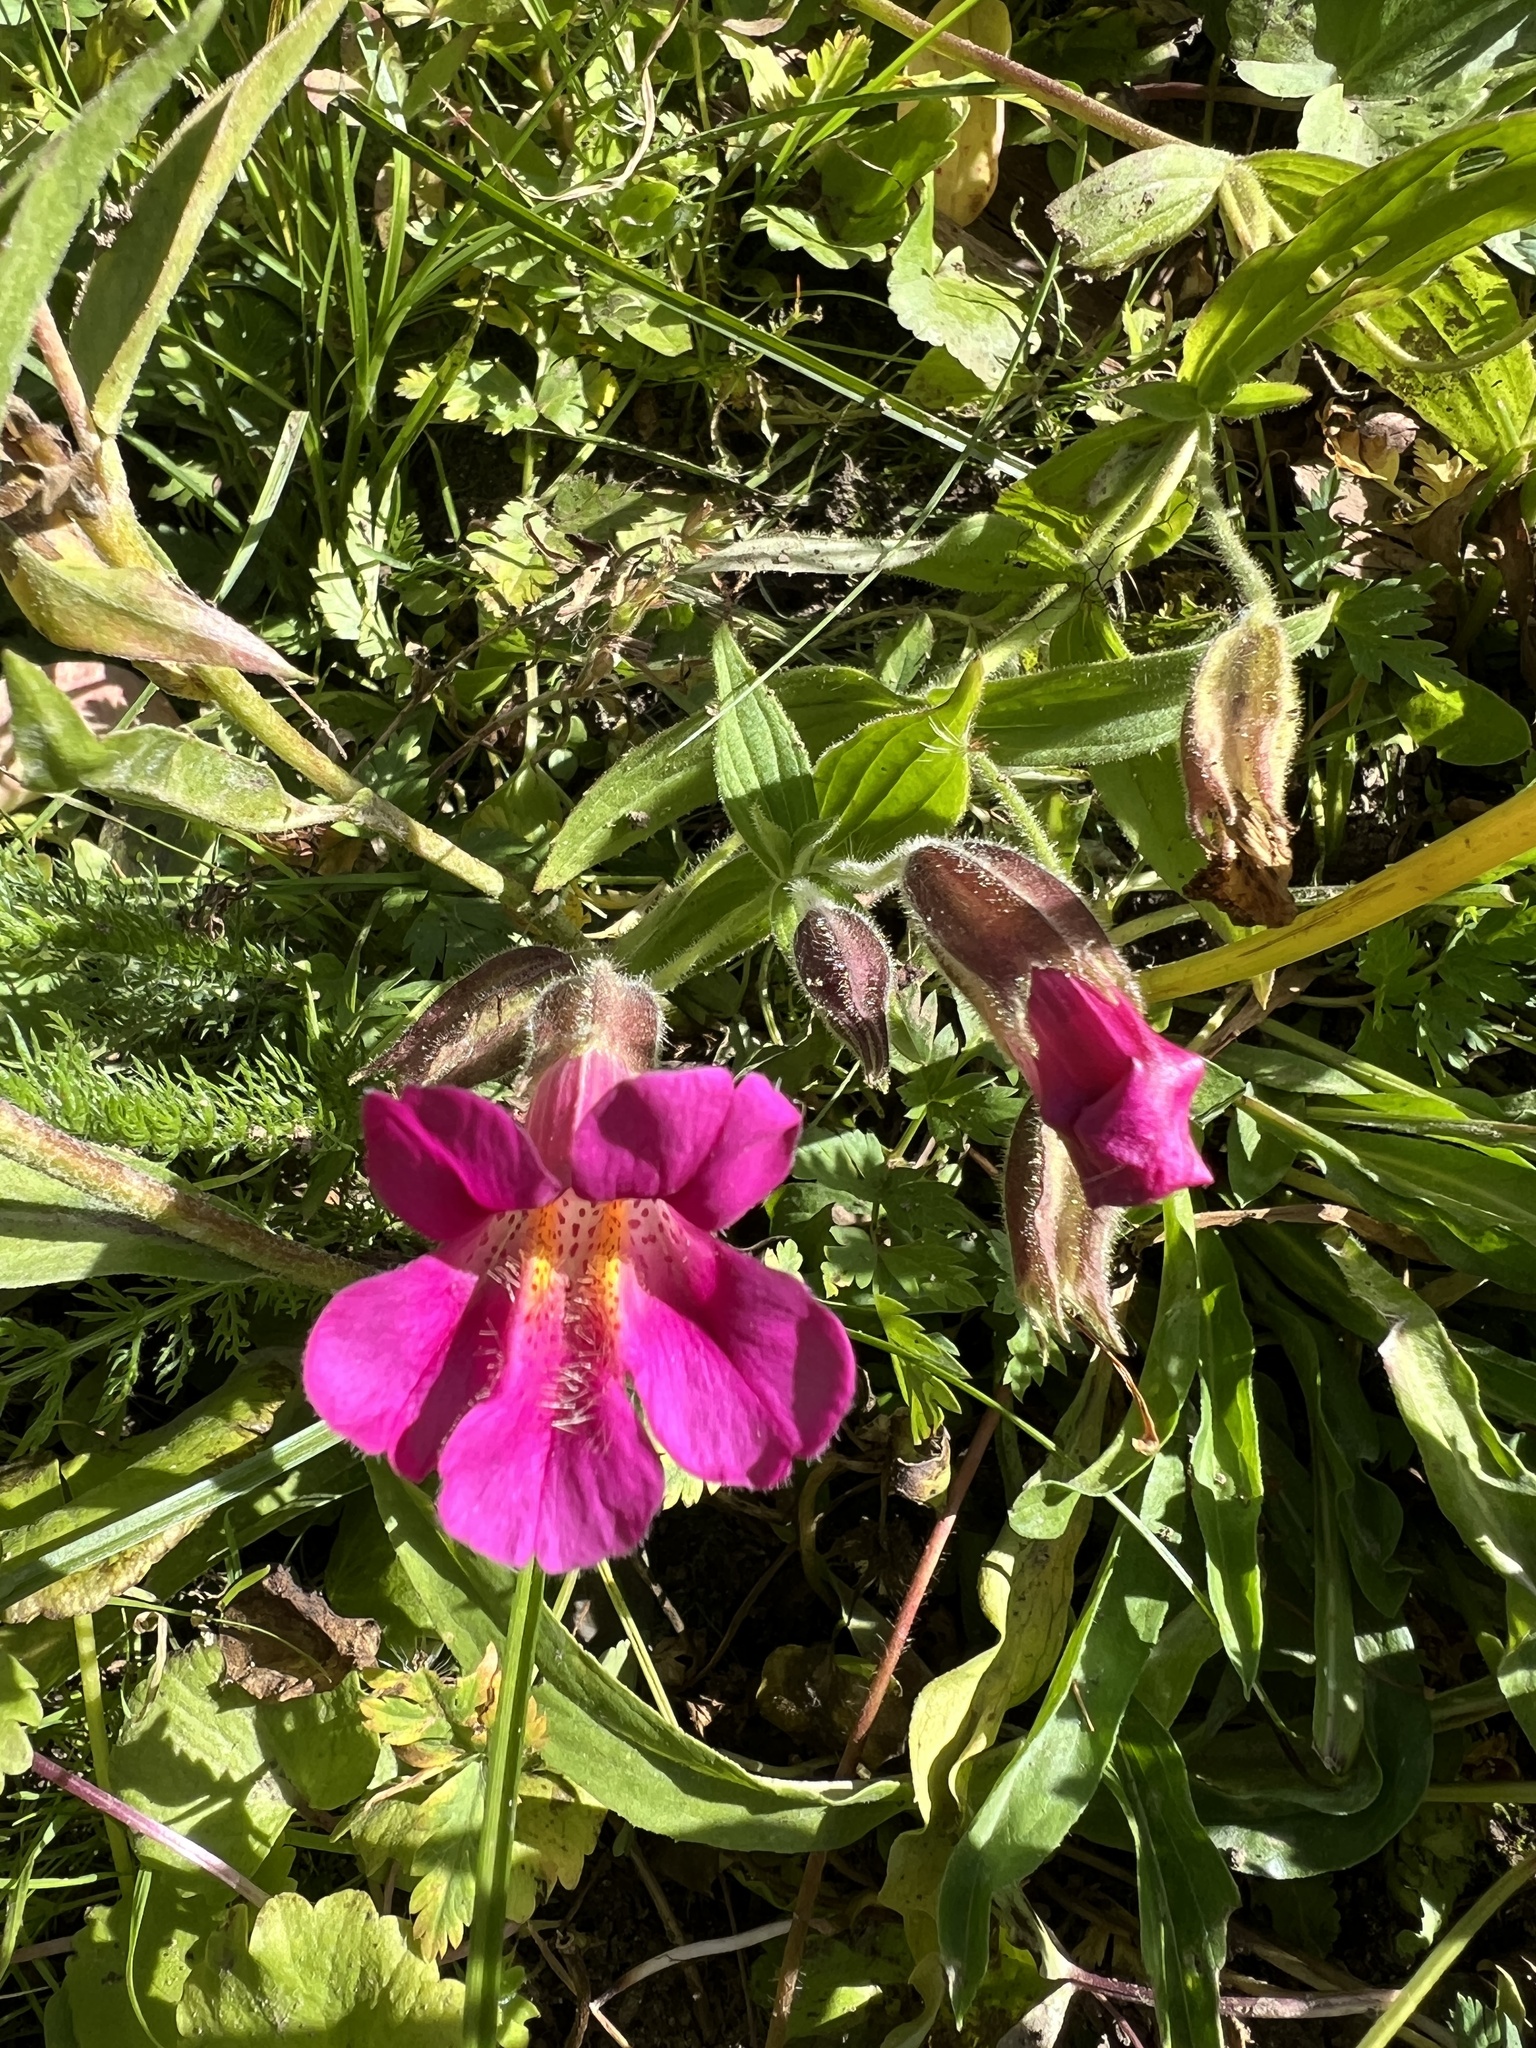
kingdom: Plantae
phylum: Tracheophyta
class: Magnoliopsida
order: Lamiales
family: Phrymaceae
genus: Erythranthe
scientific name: Erythranthe lewisii
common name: Lewis's monkey-flower
